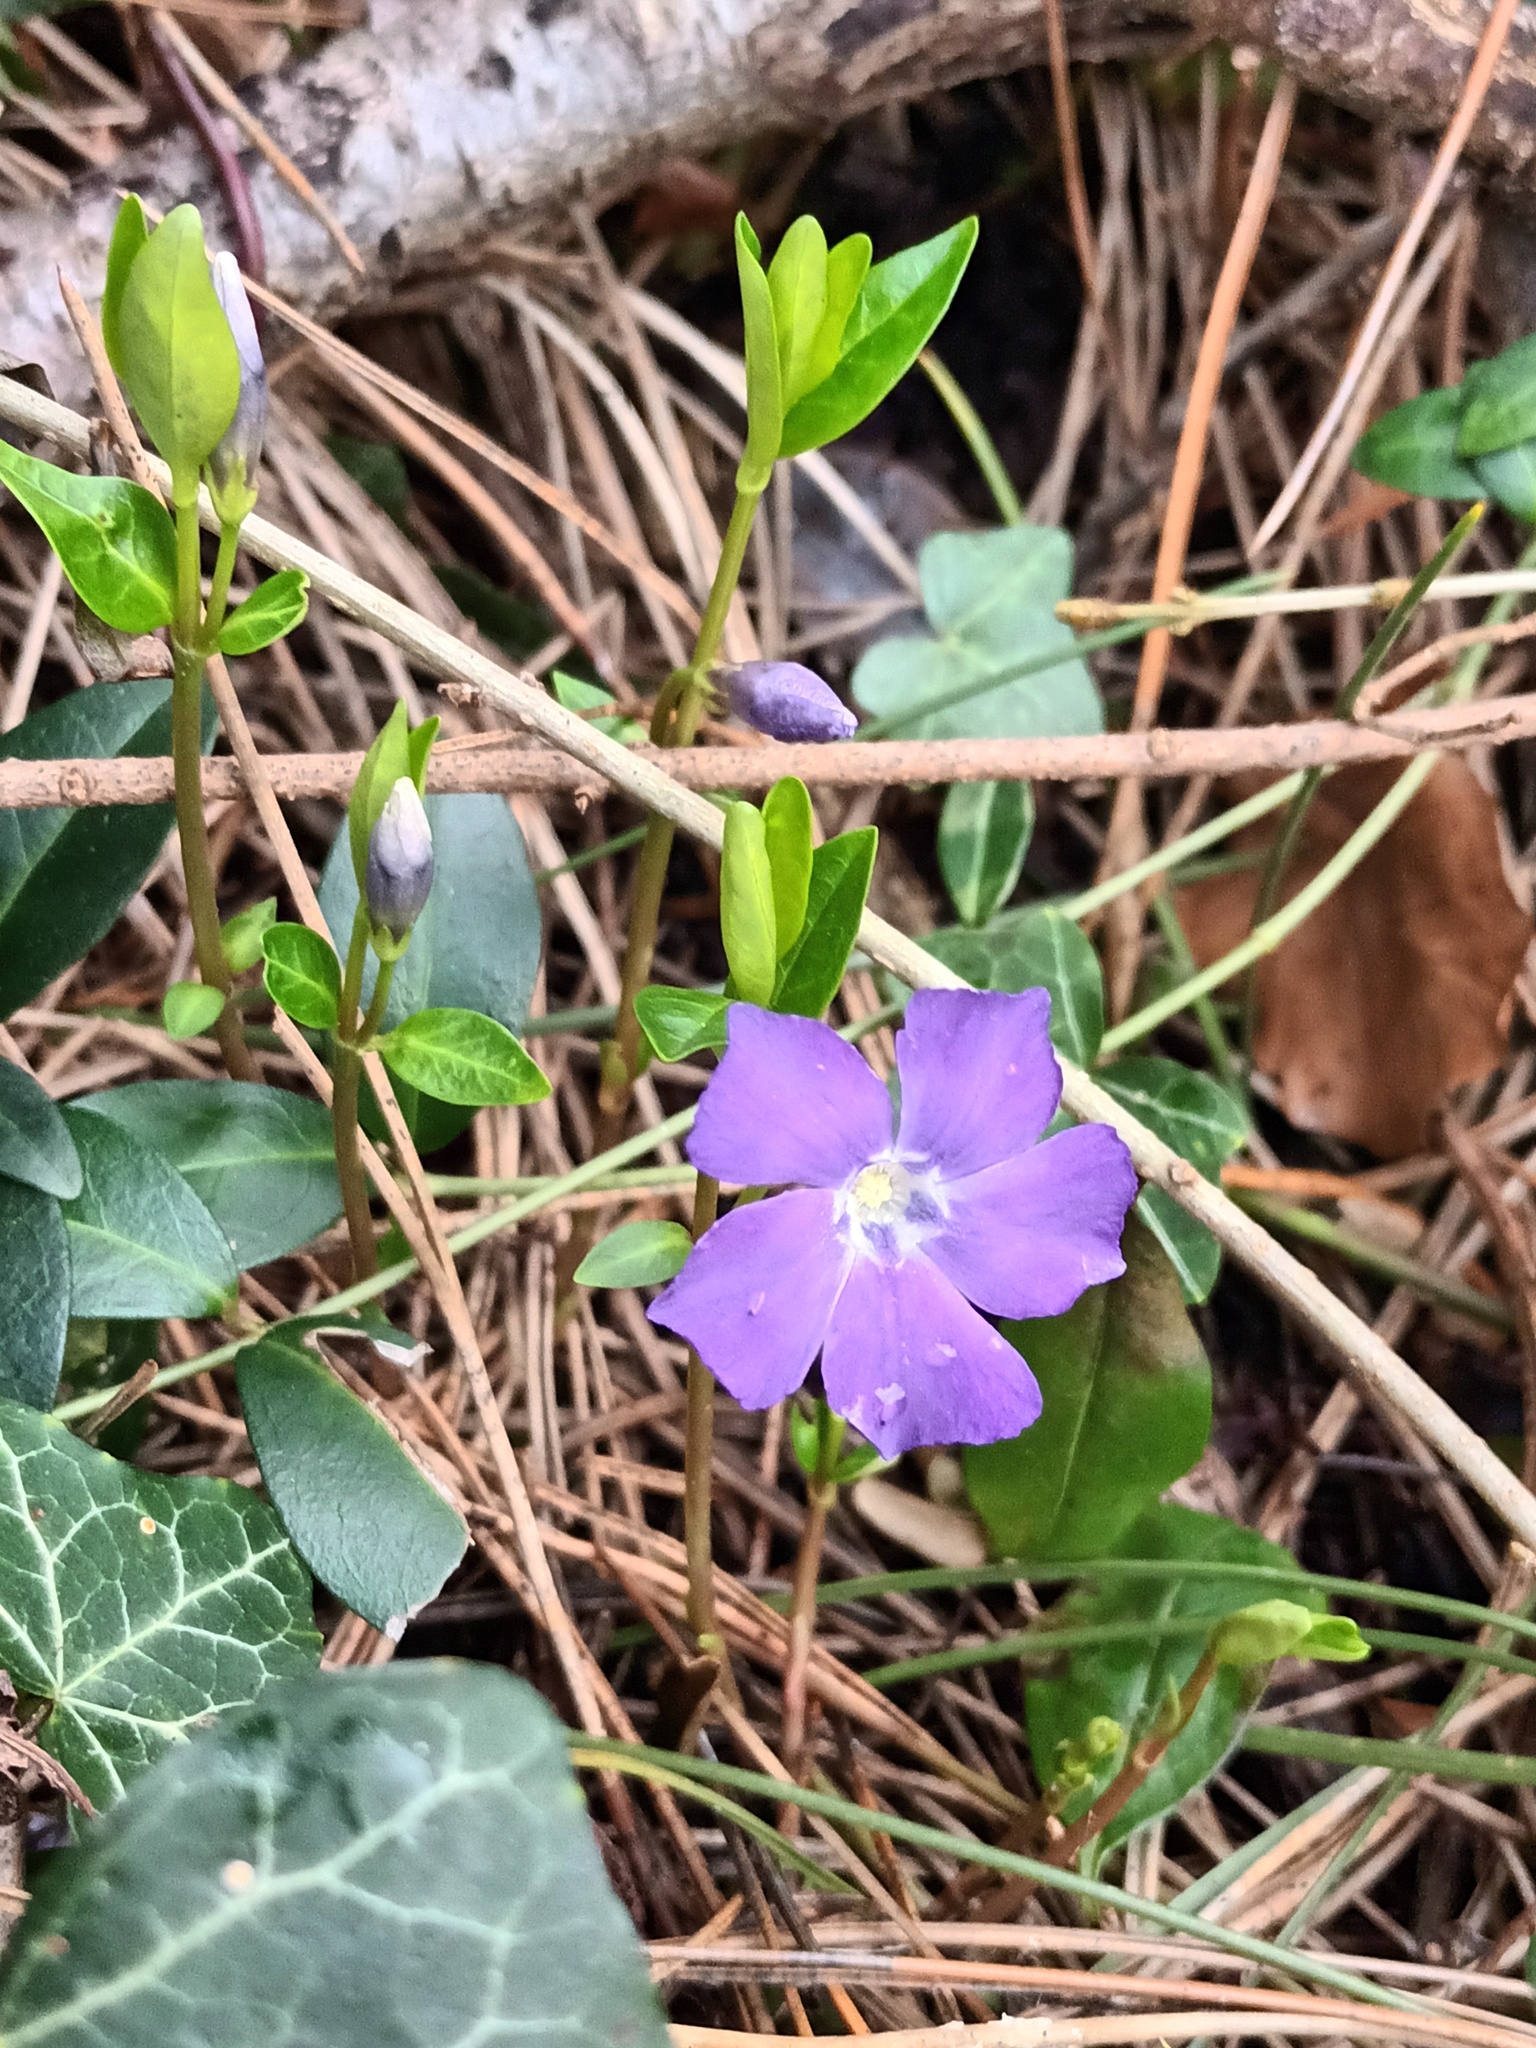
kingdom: Plantae
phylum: Tracheophyta
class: Magnoliopsida
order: Gentianales
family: Apocynaceae
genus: Vinca
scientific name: Vinca minor
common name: Lesser periwinkle
